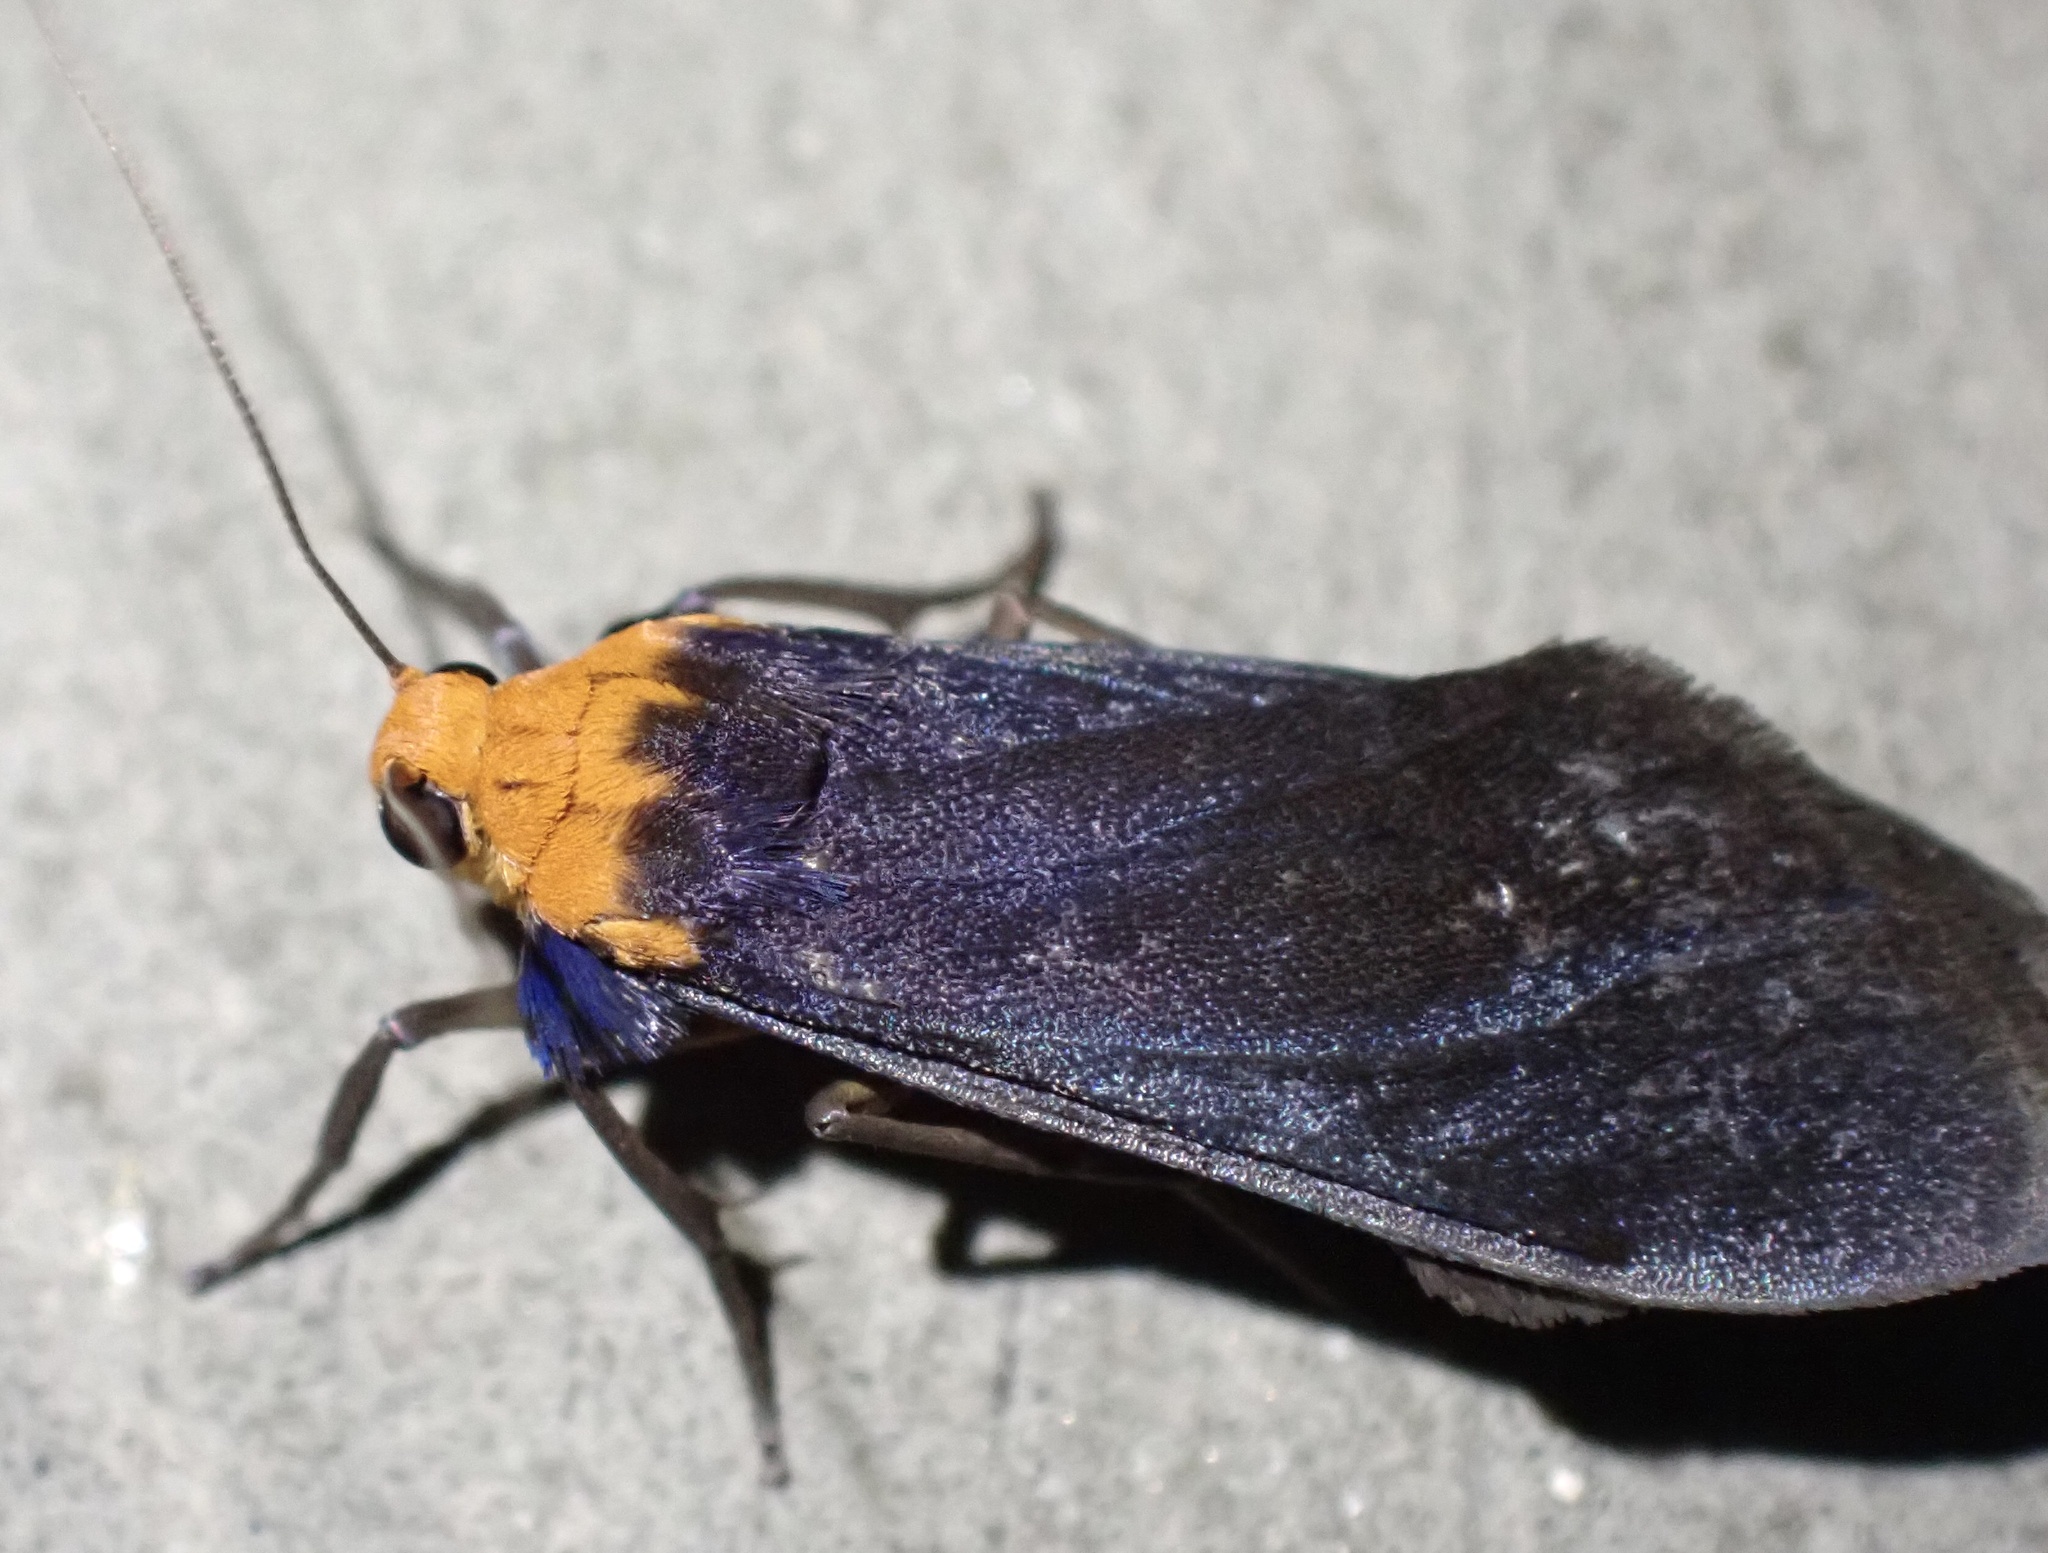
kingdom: Animalia
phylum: Arthropoda
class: Insecta
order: Lepidoptera
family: Erebidae
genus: Scoliacma
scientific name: Scoliacma brunnea
